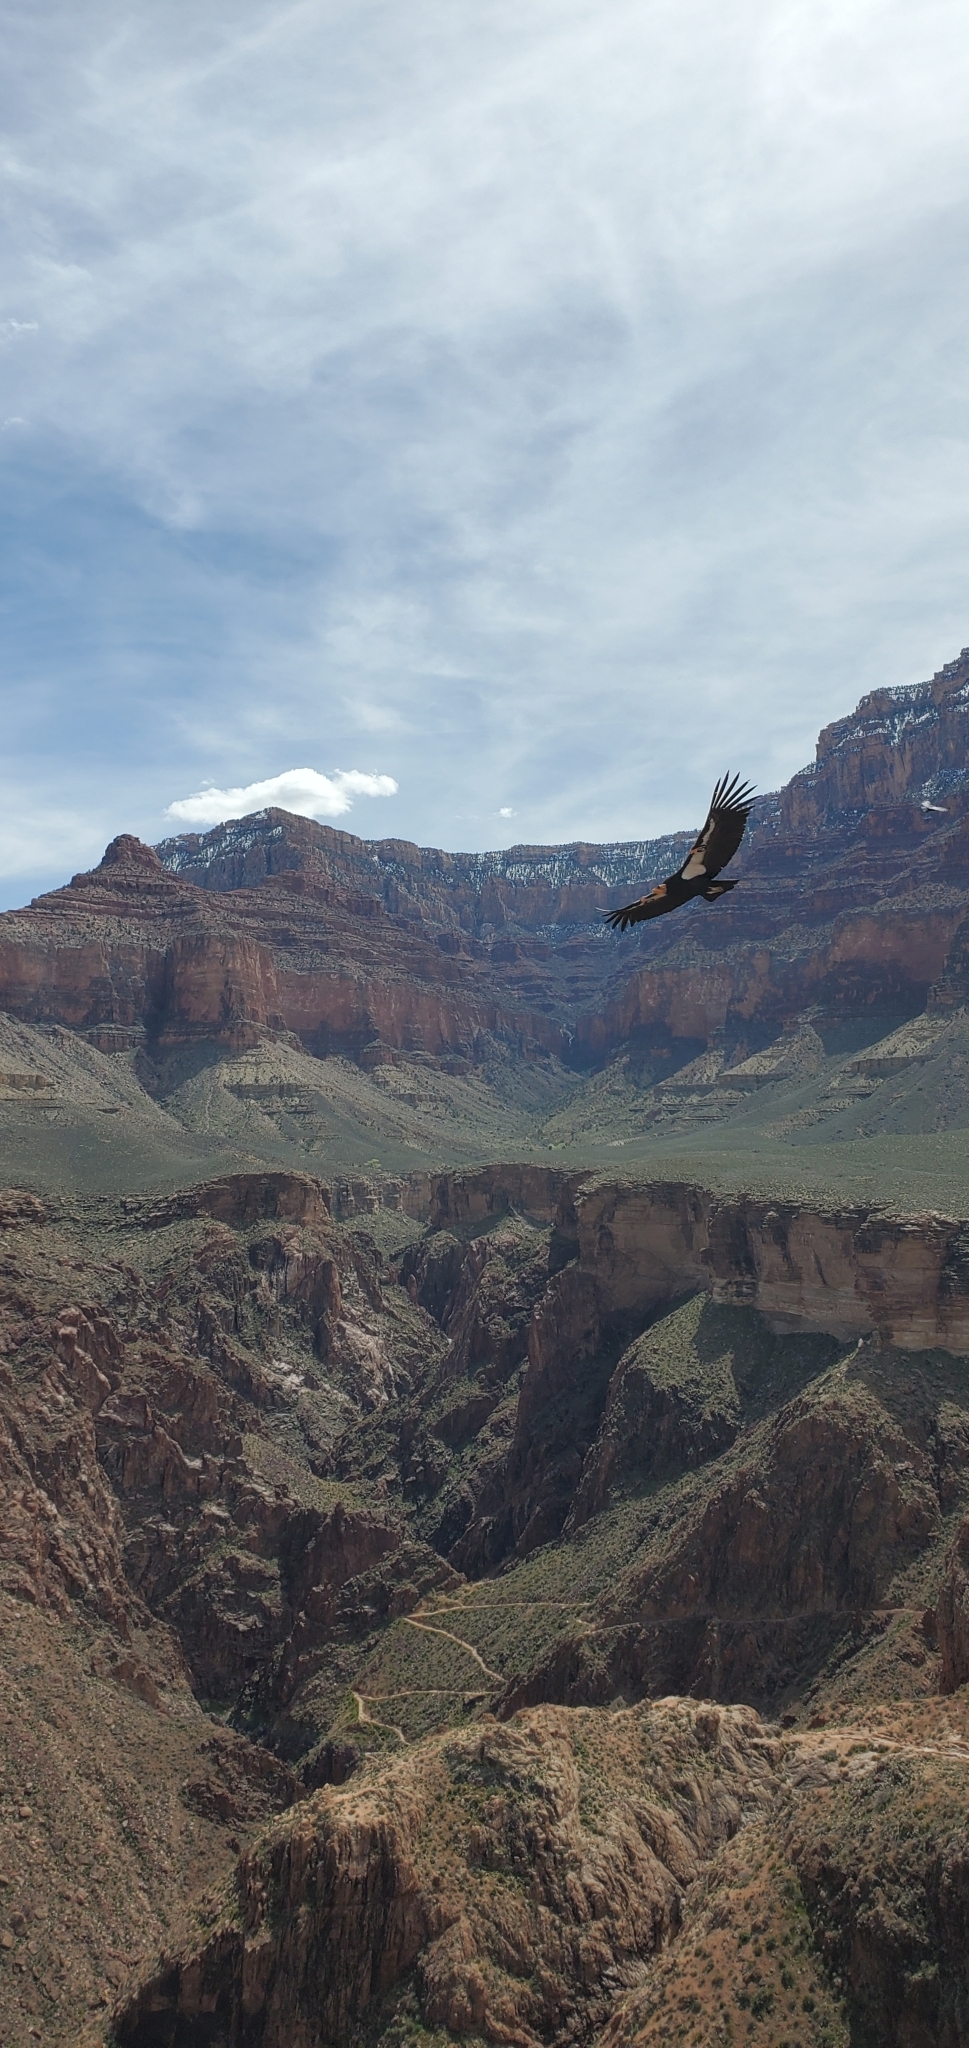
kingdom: Animalia
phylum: Chordata
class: Aves
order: Accipitriformes
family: Cathartidae
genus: Gymnogyps
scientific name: Gymnogyps californianus
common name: California condor
